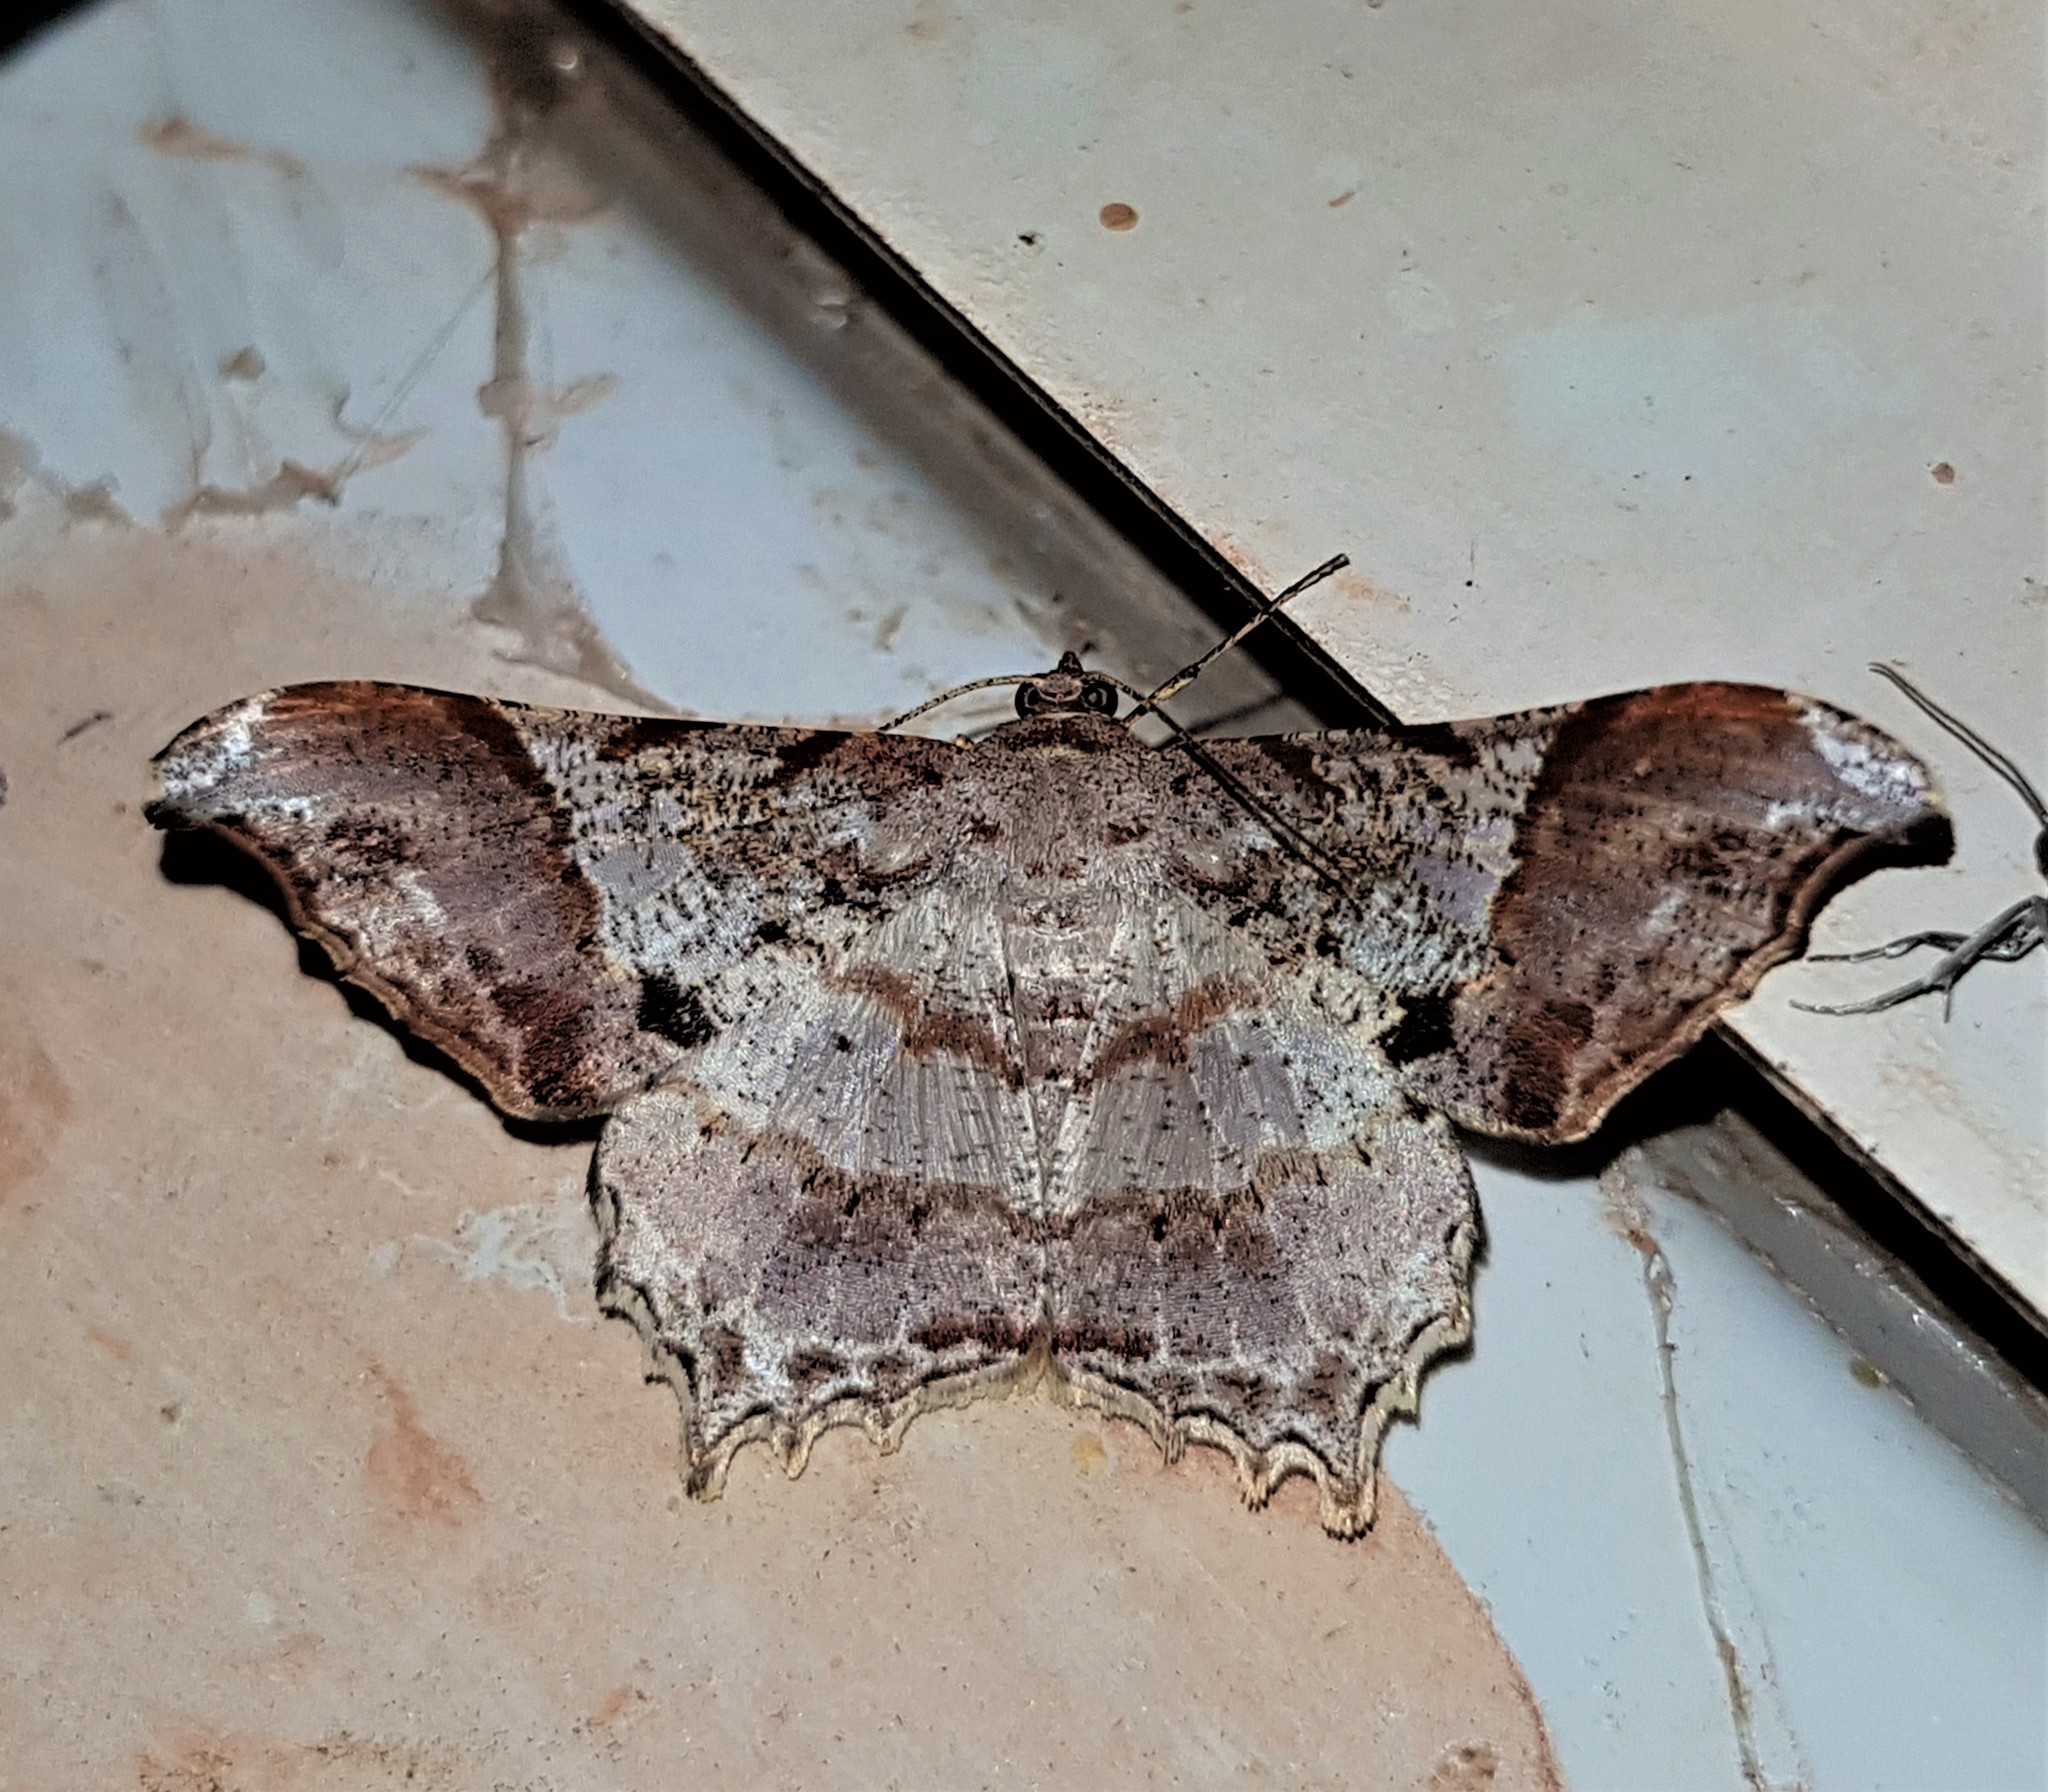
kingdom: Animalia
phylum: Arthropoda
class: Insecta
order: Lepidoptera
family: Geometridae
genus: Semiothisa
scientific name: Semiothisa
